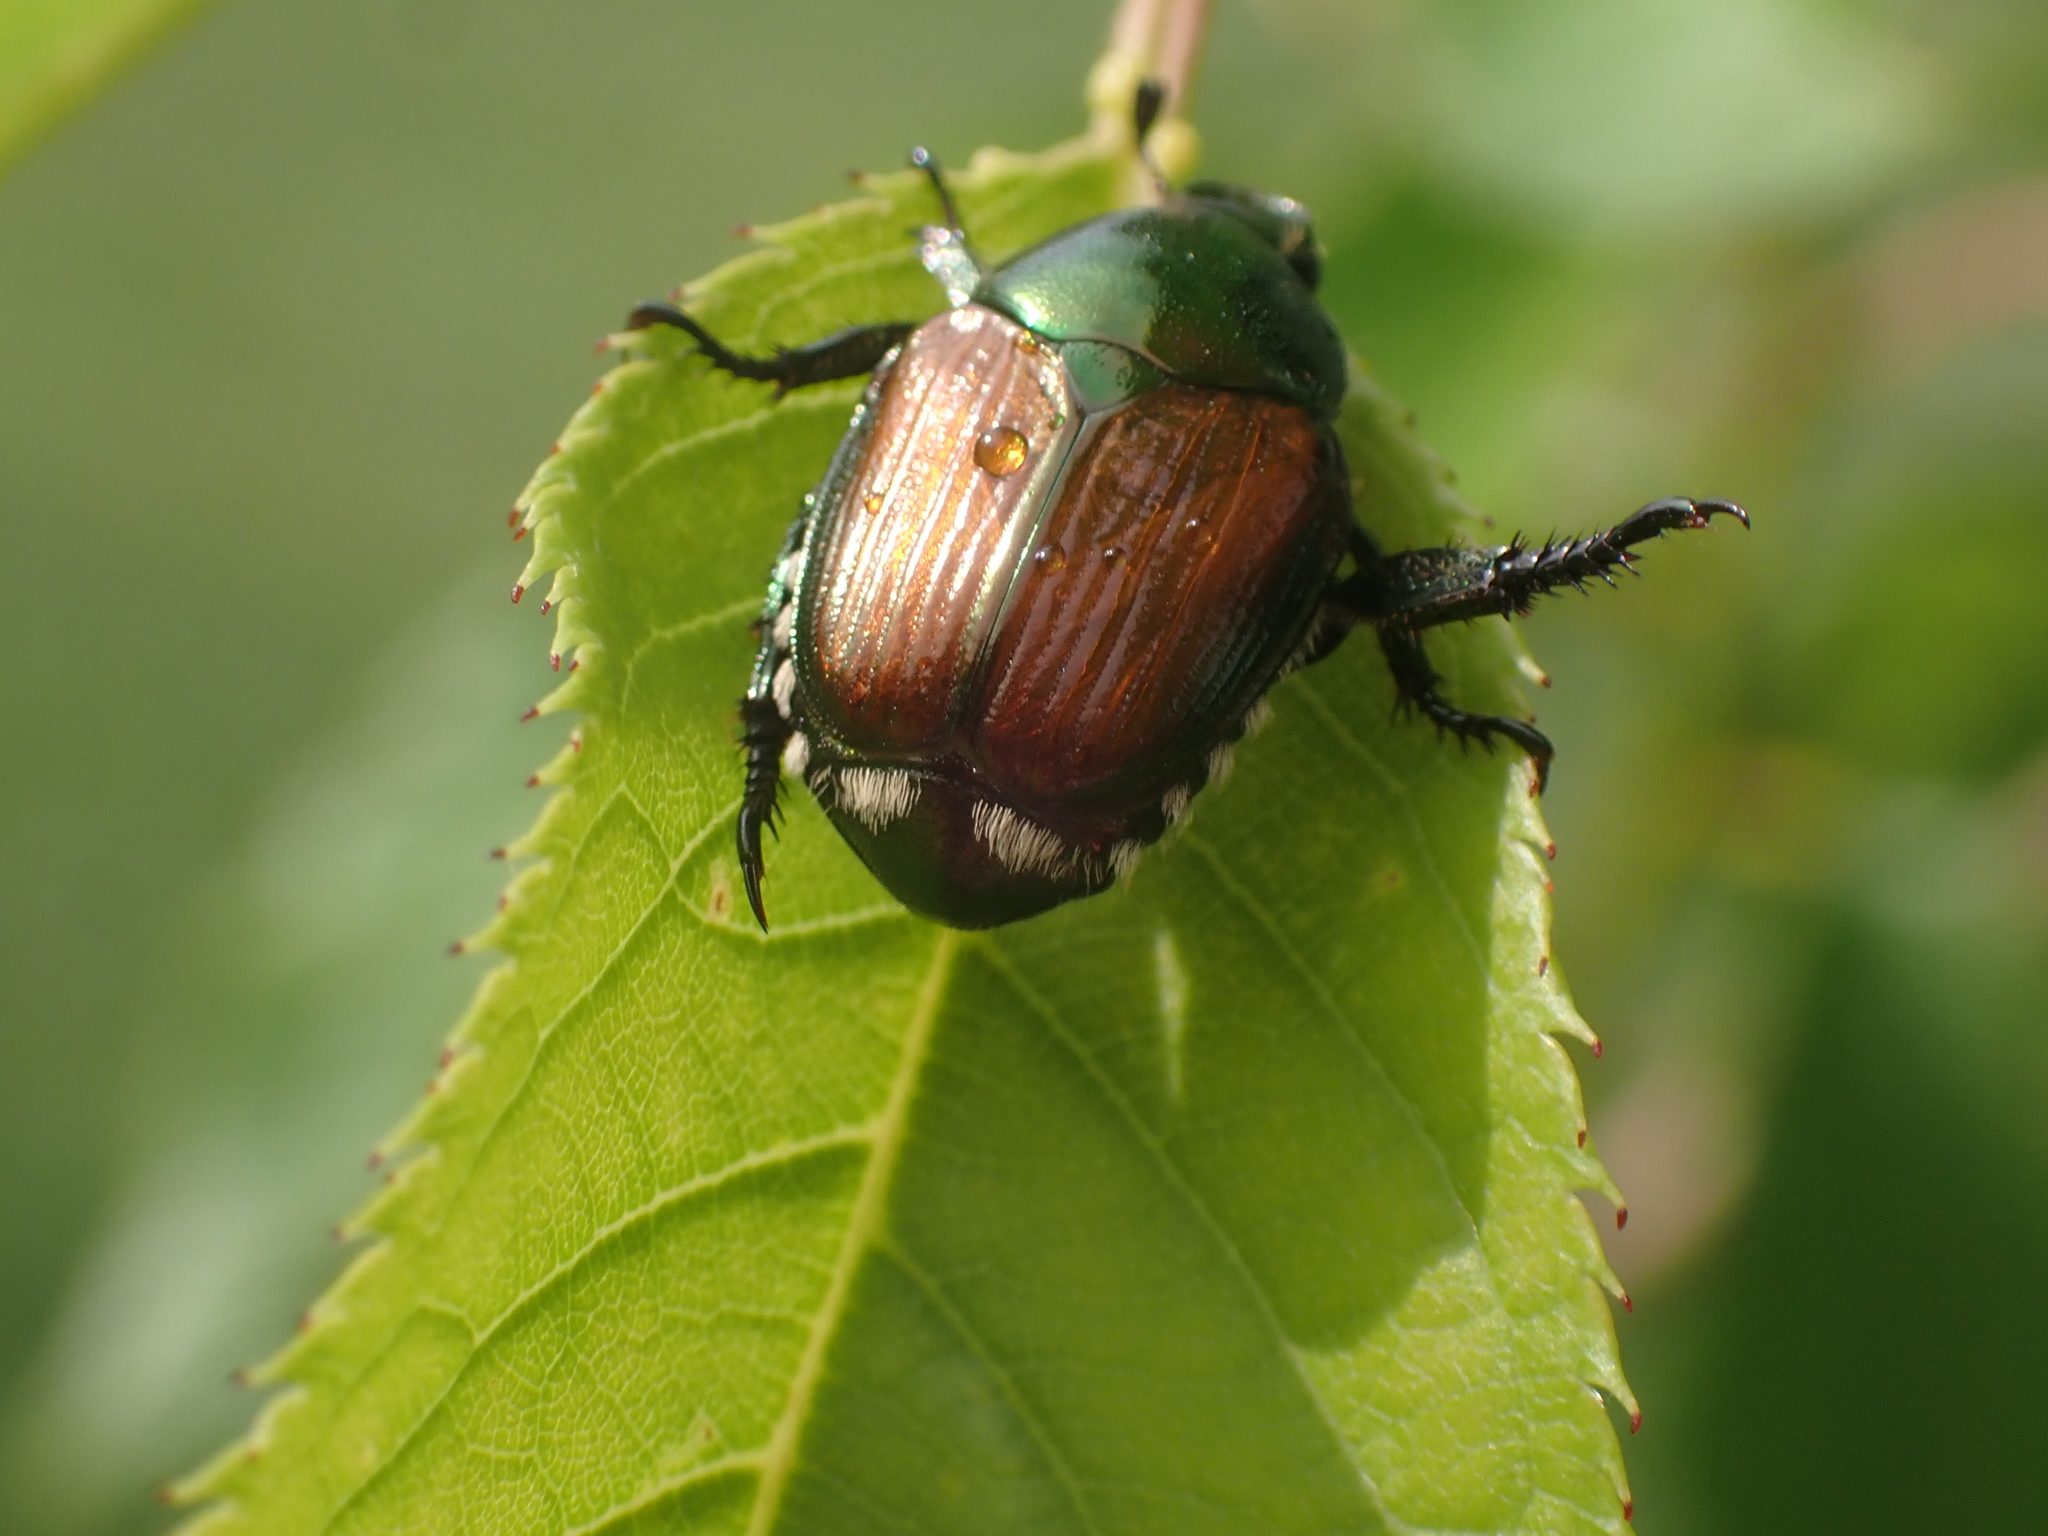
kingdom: Animalia
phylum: Arthropoda
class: Insecta
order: Coleoptera
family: Scarabaeidae
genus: Popillia
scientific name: Popillia japonica
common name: Japanese beetle
